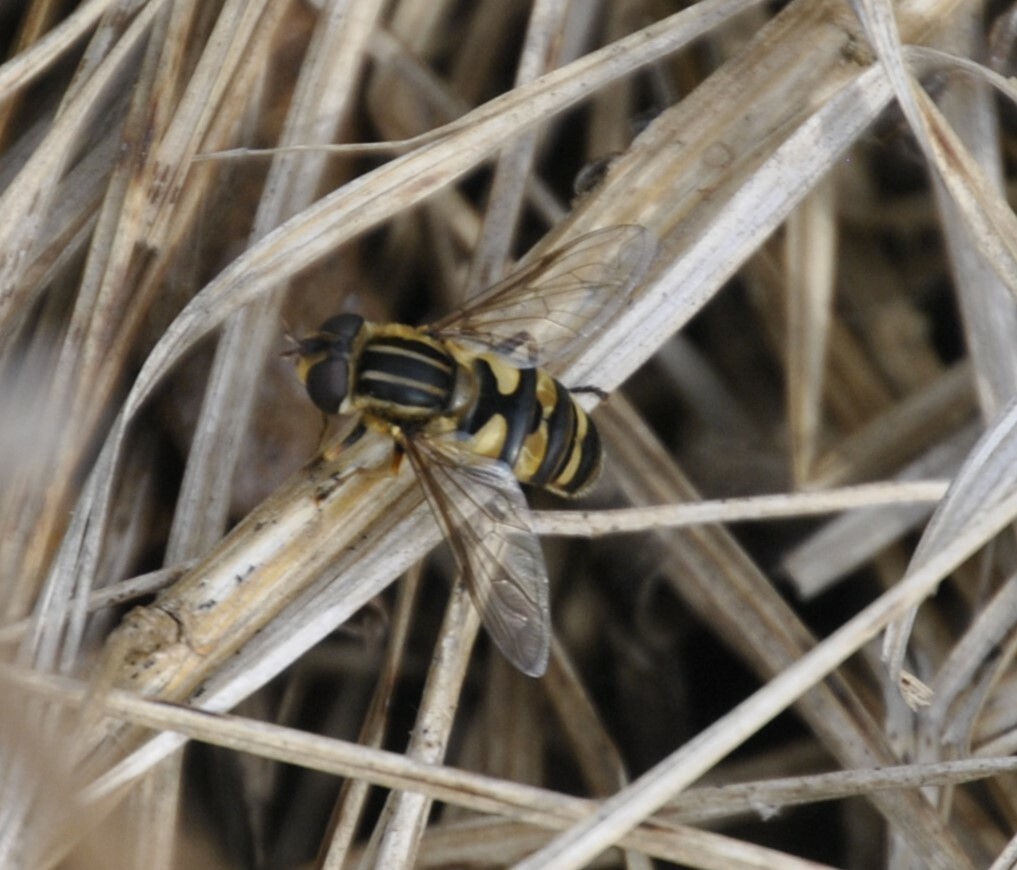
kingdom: Animalia
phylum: Arthropoda
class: Insecta
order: Diptera
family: Syrphidae
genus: Helophilus
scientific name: Helophilus fasciatus
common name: Narrow-headed marsh fly
